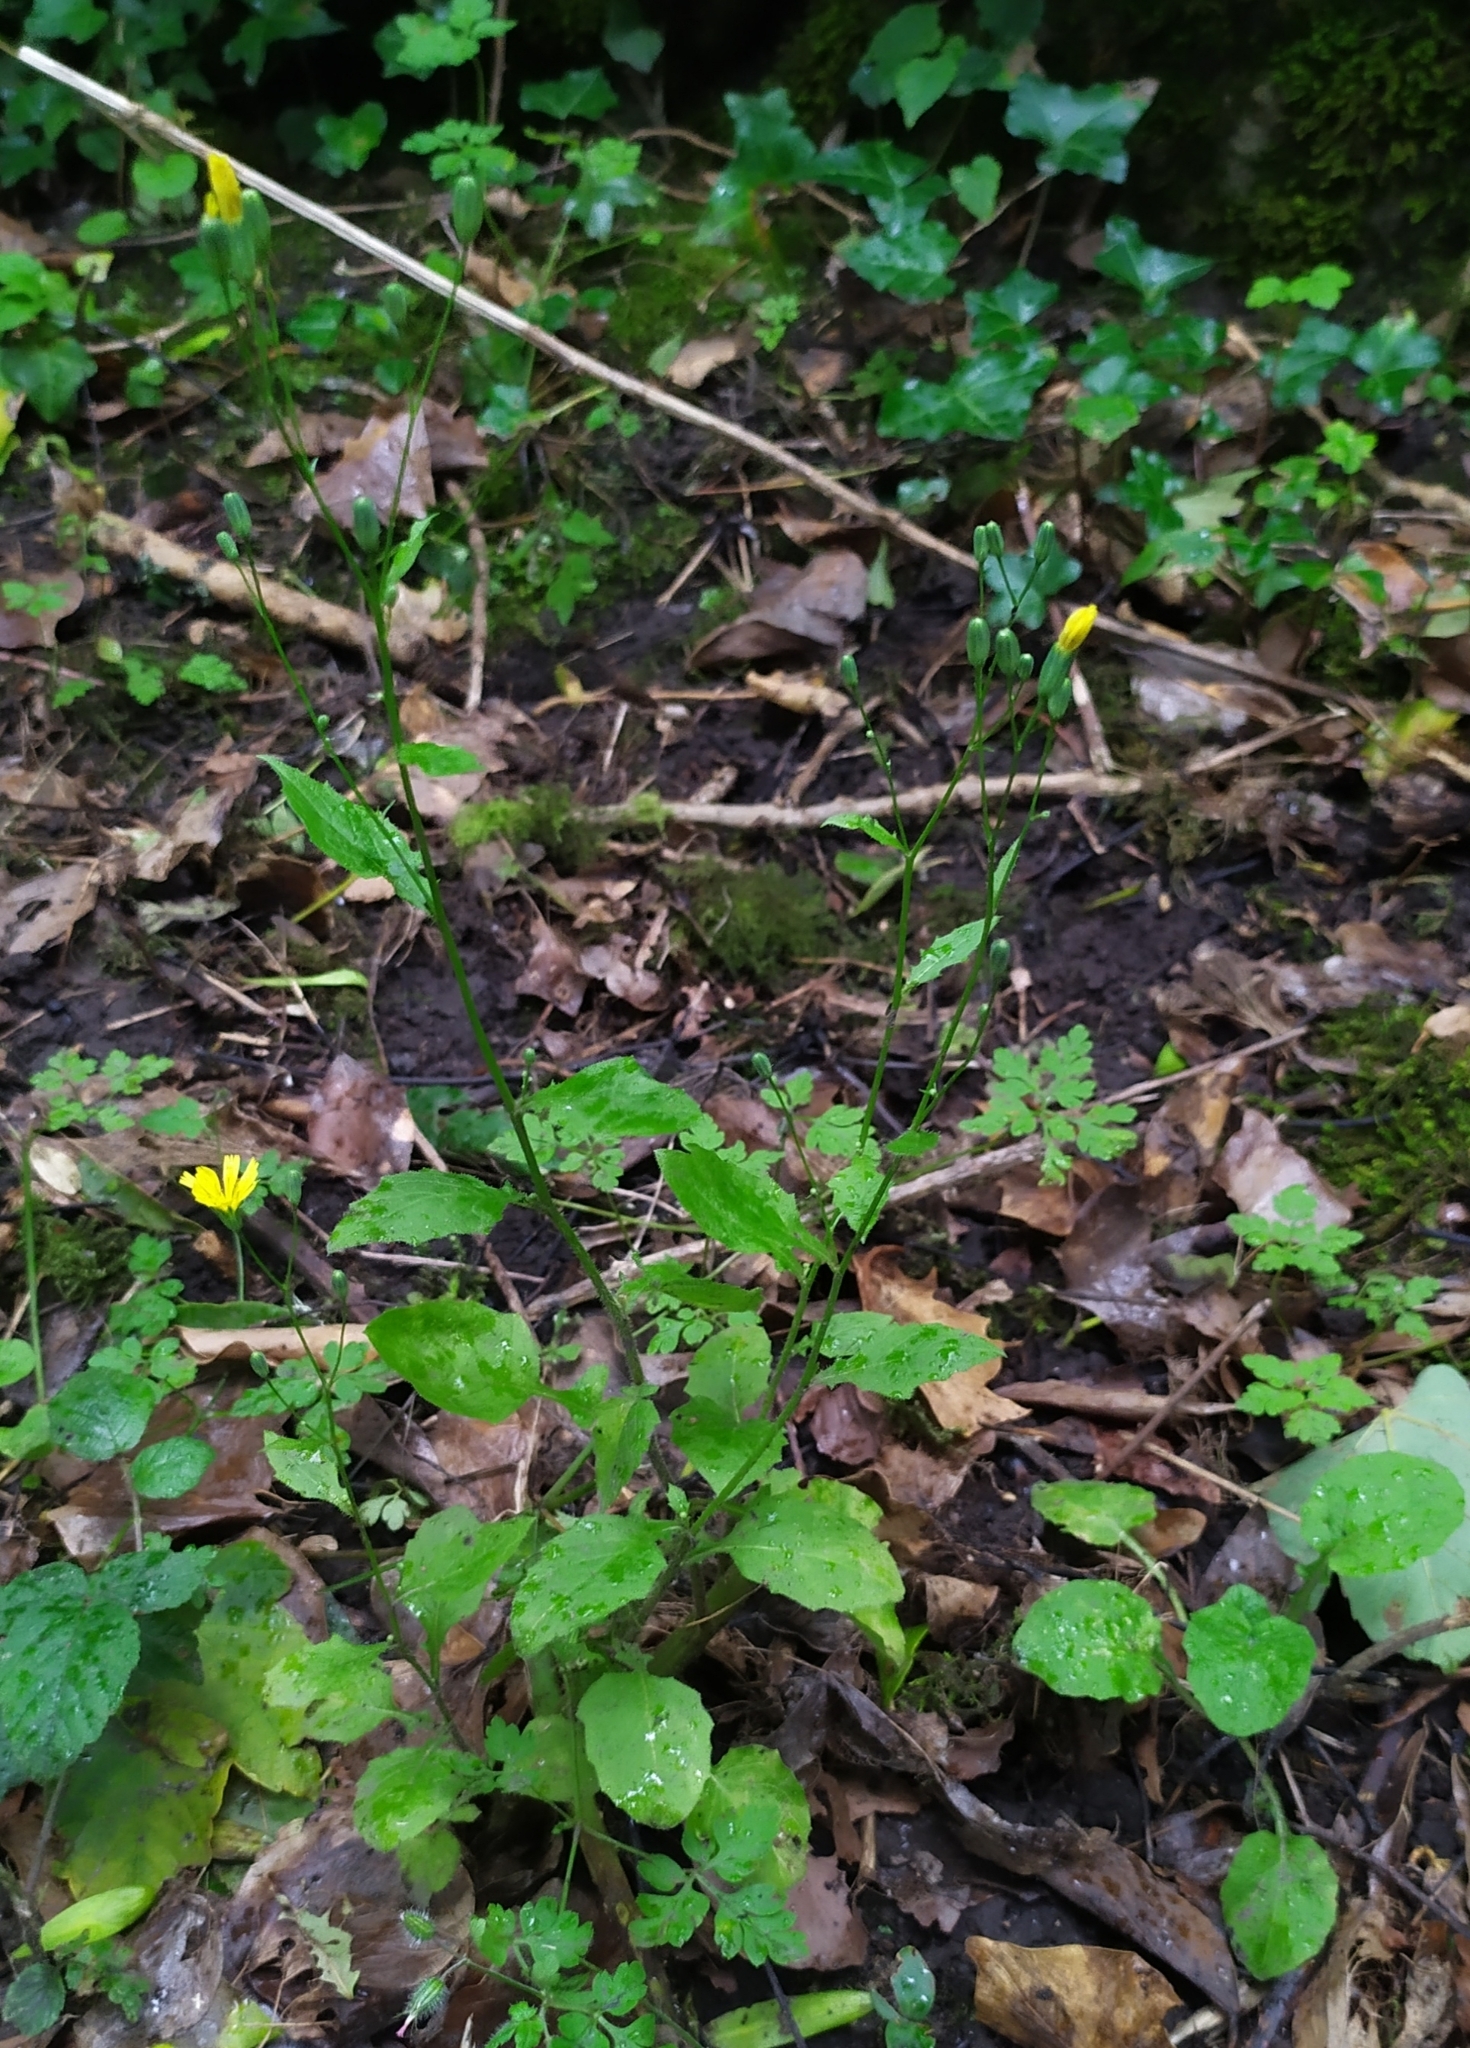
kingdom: Plantae
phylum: Tracheophyta
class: Magnoliopsida
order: Asterales
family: Asteraceae
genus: Lapsana
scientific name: Lapsana communis
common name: Nipplewort
